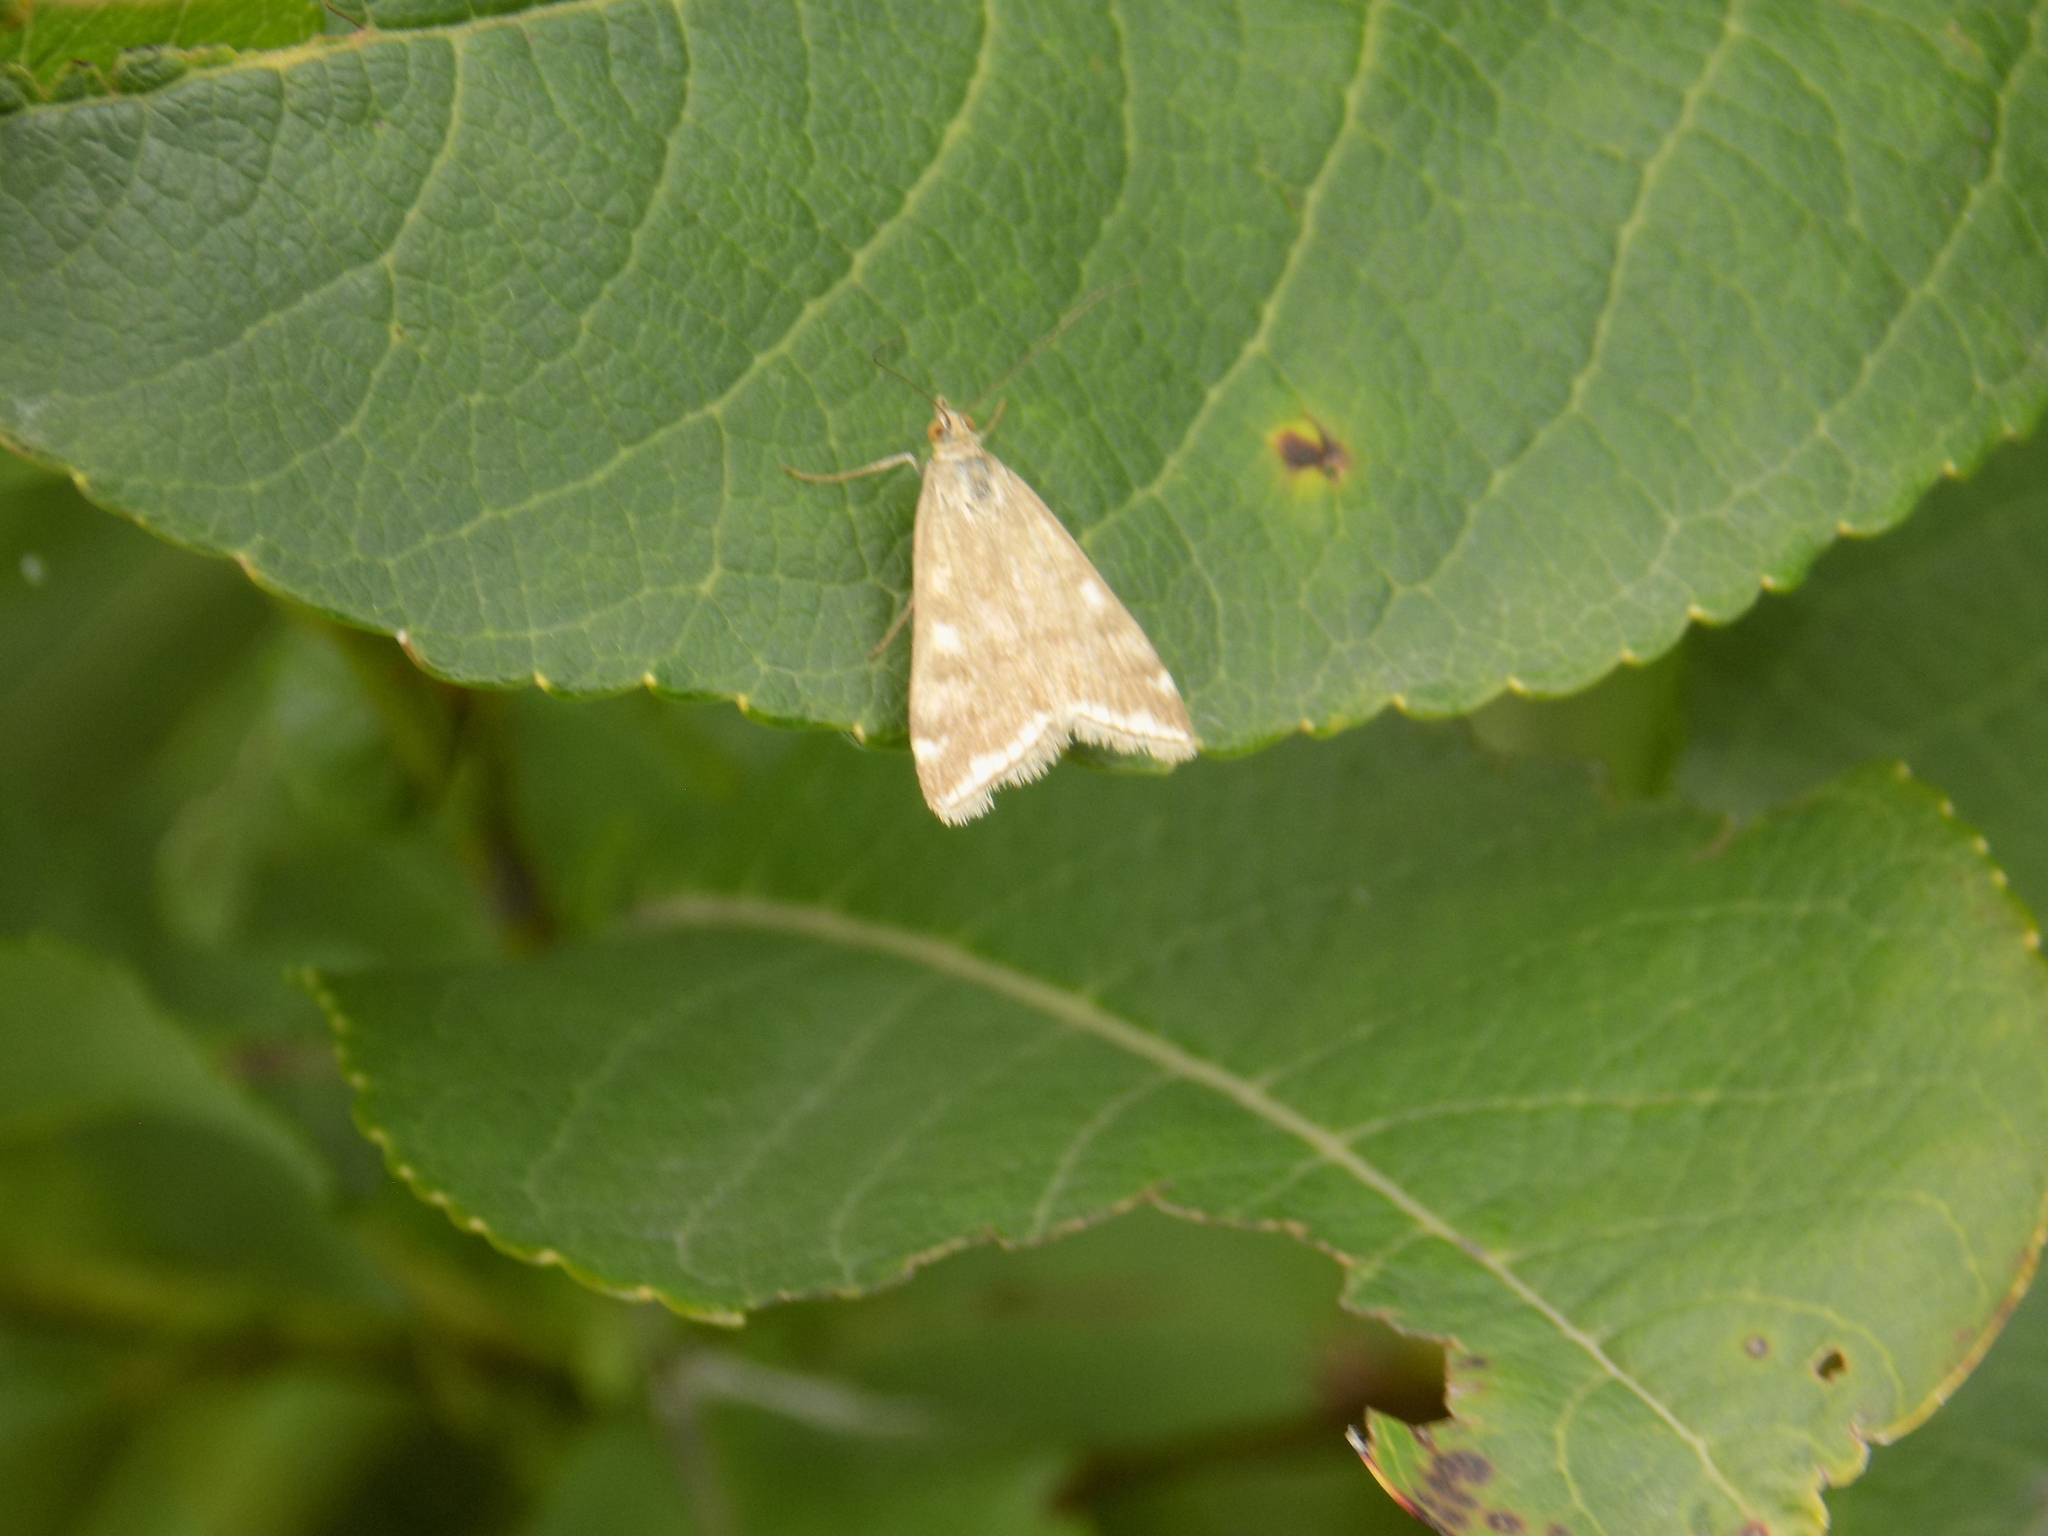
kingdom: Animalia
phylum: Arthropoda
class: Insecta
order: Lepidoptera
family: Crambidae
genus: Loxostege
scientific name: Loxostege sticticalis
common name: Crambid moth
